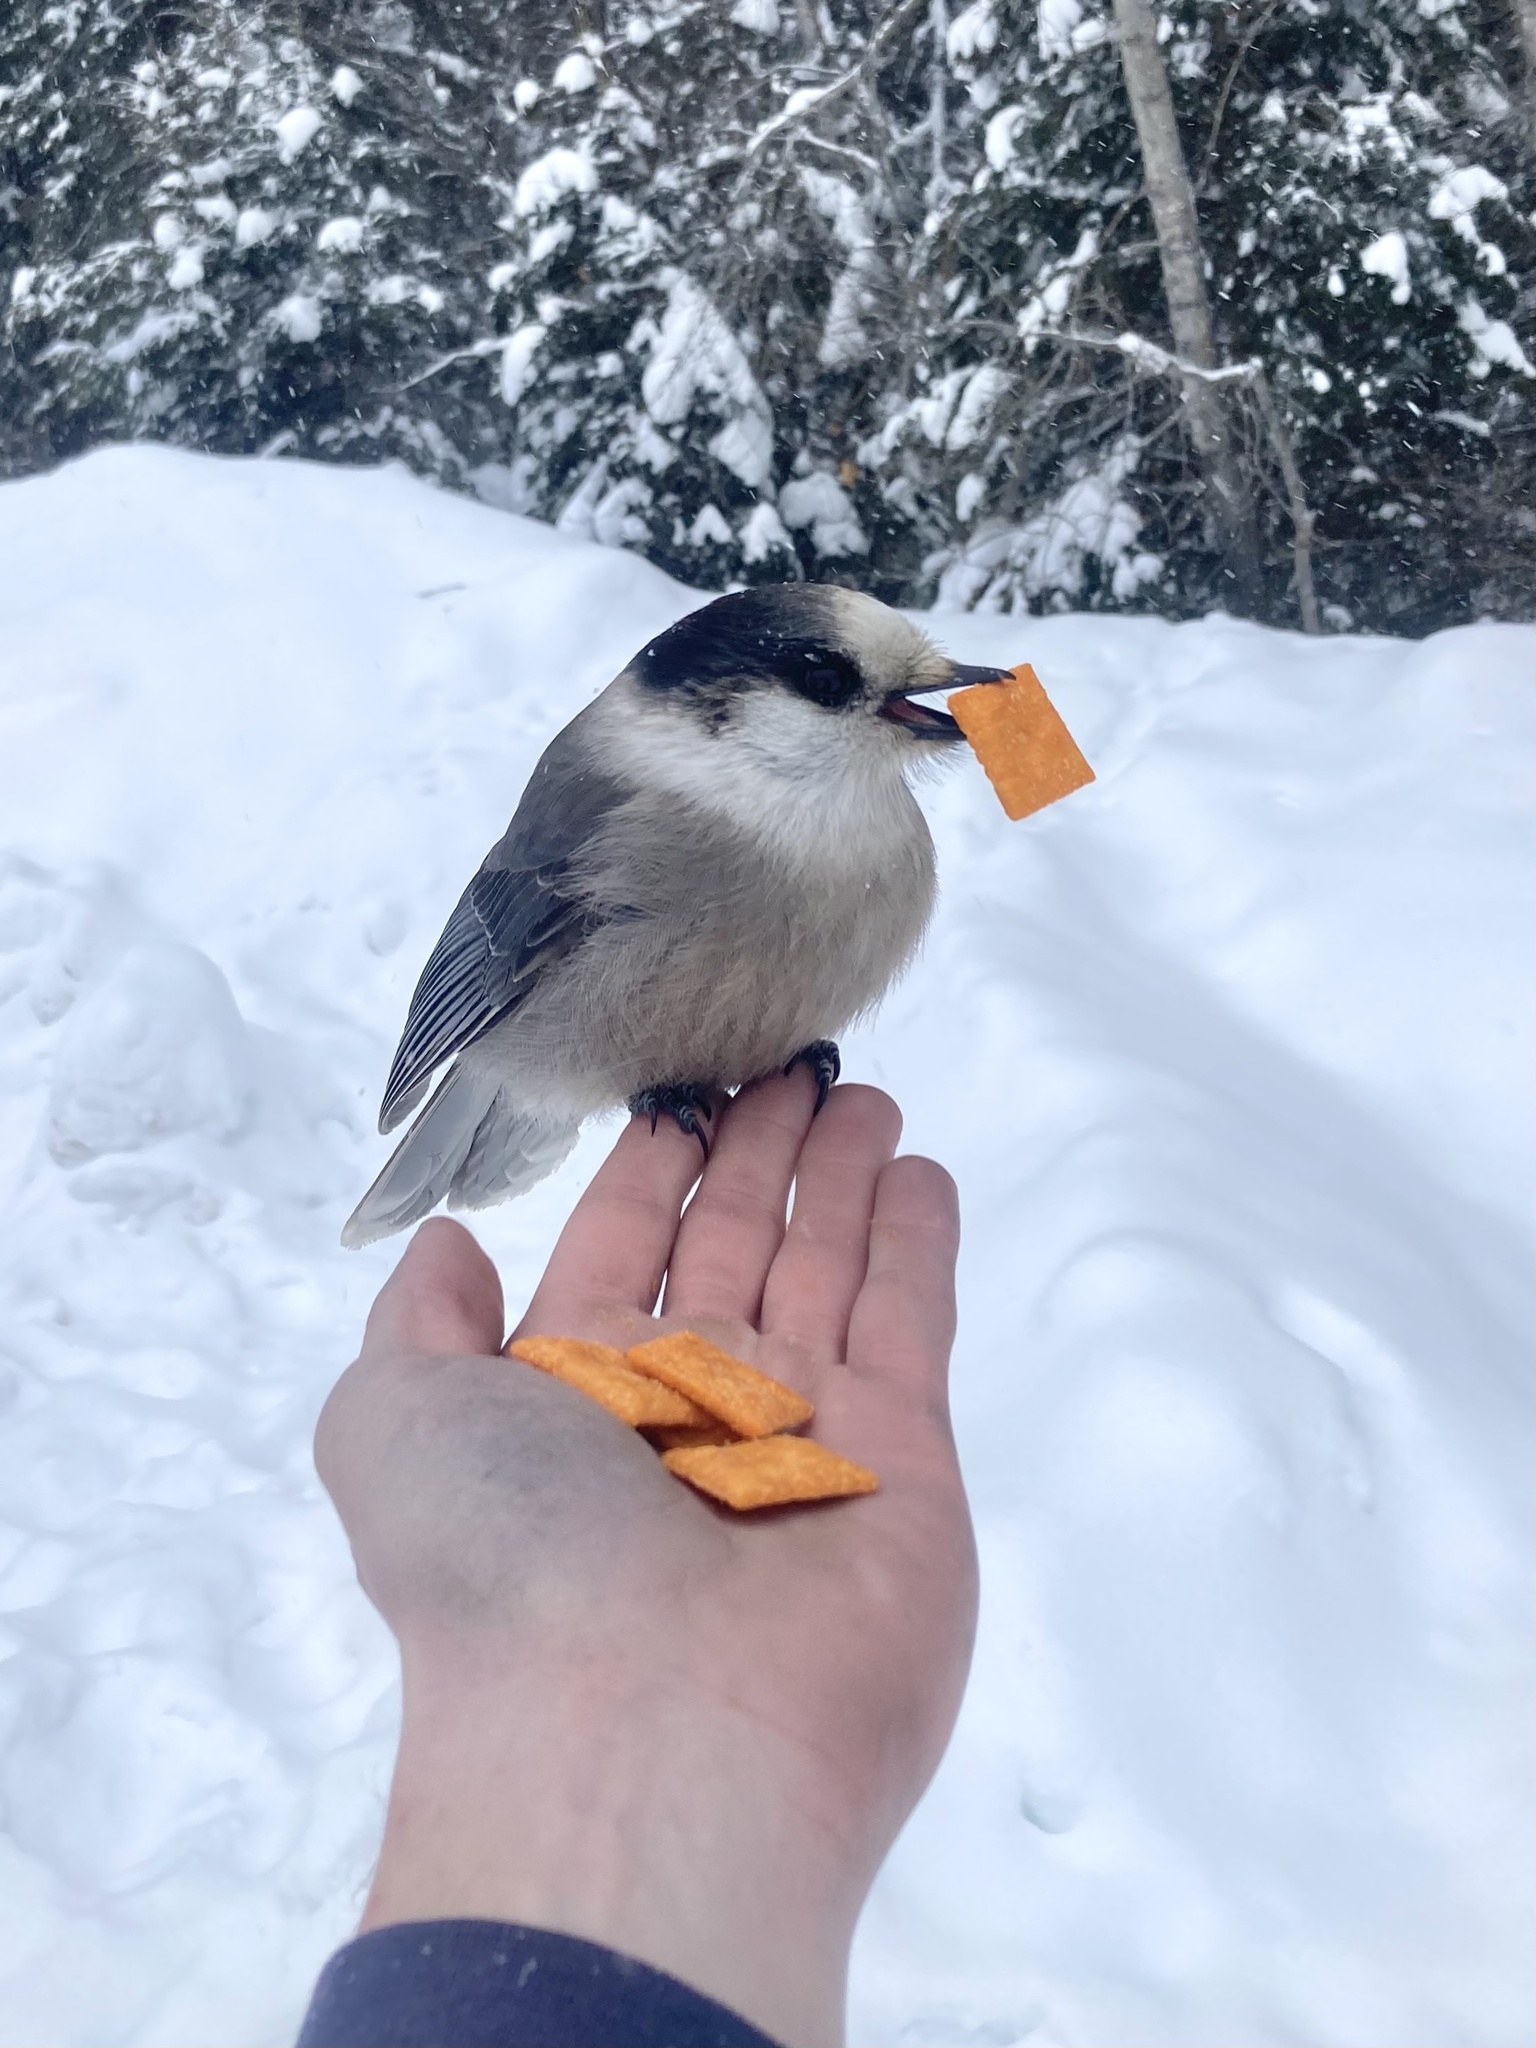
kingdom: Animalia
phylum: Chordata
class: Aves
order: Passeriformes
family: Corvidae
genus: Perisoreus
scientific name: Perisoreus canadensis
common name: Gray jay
